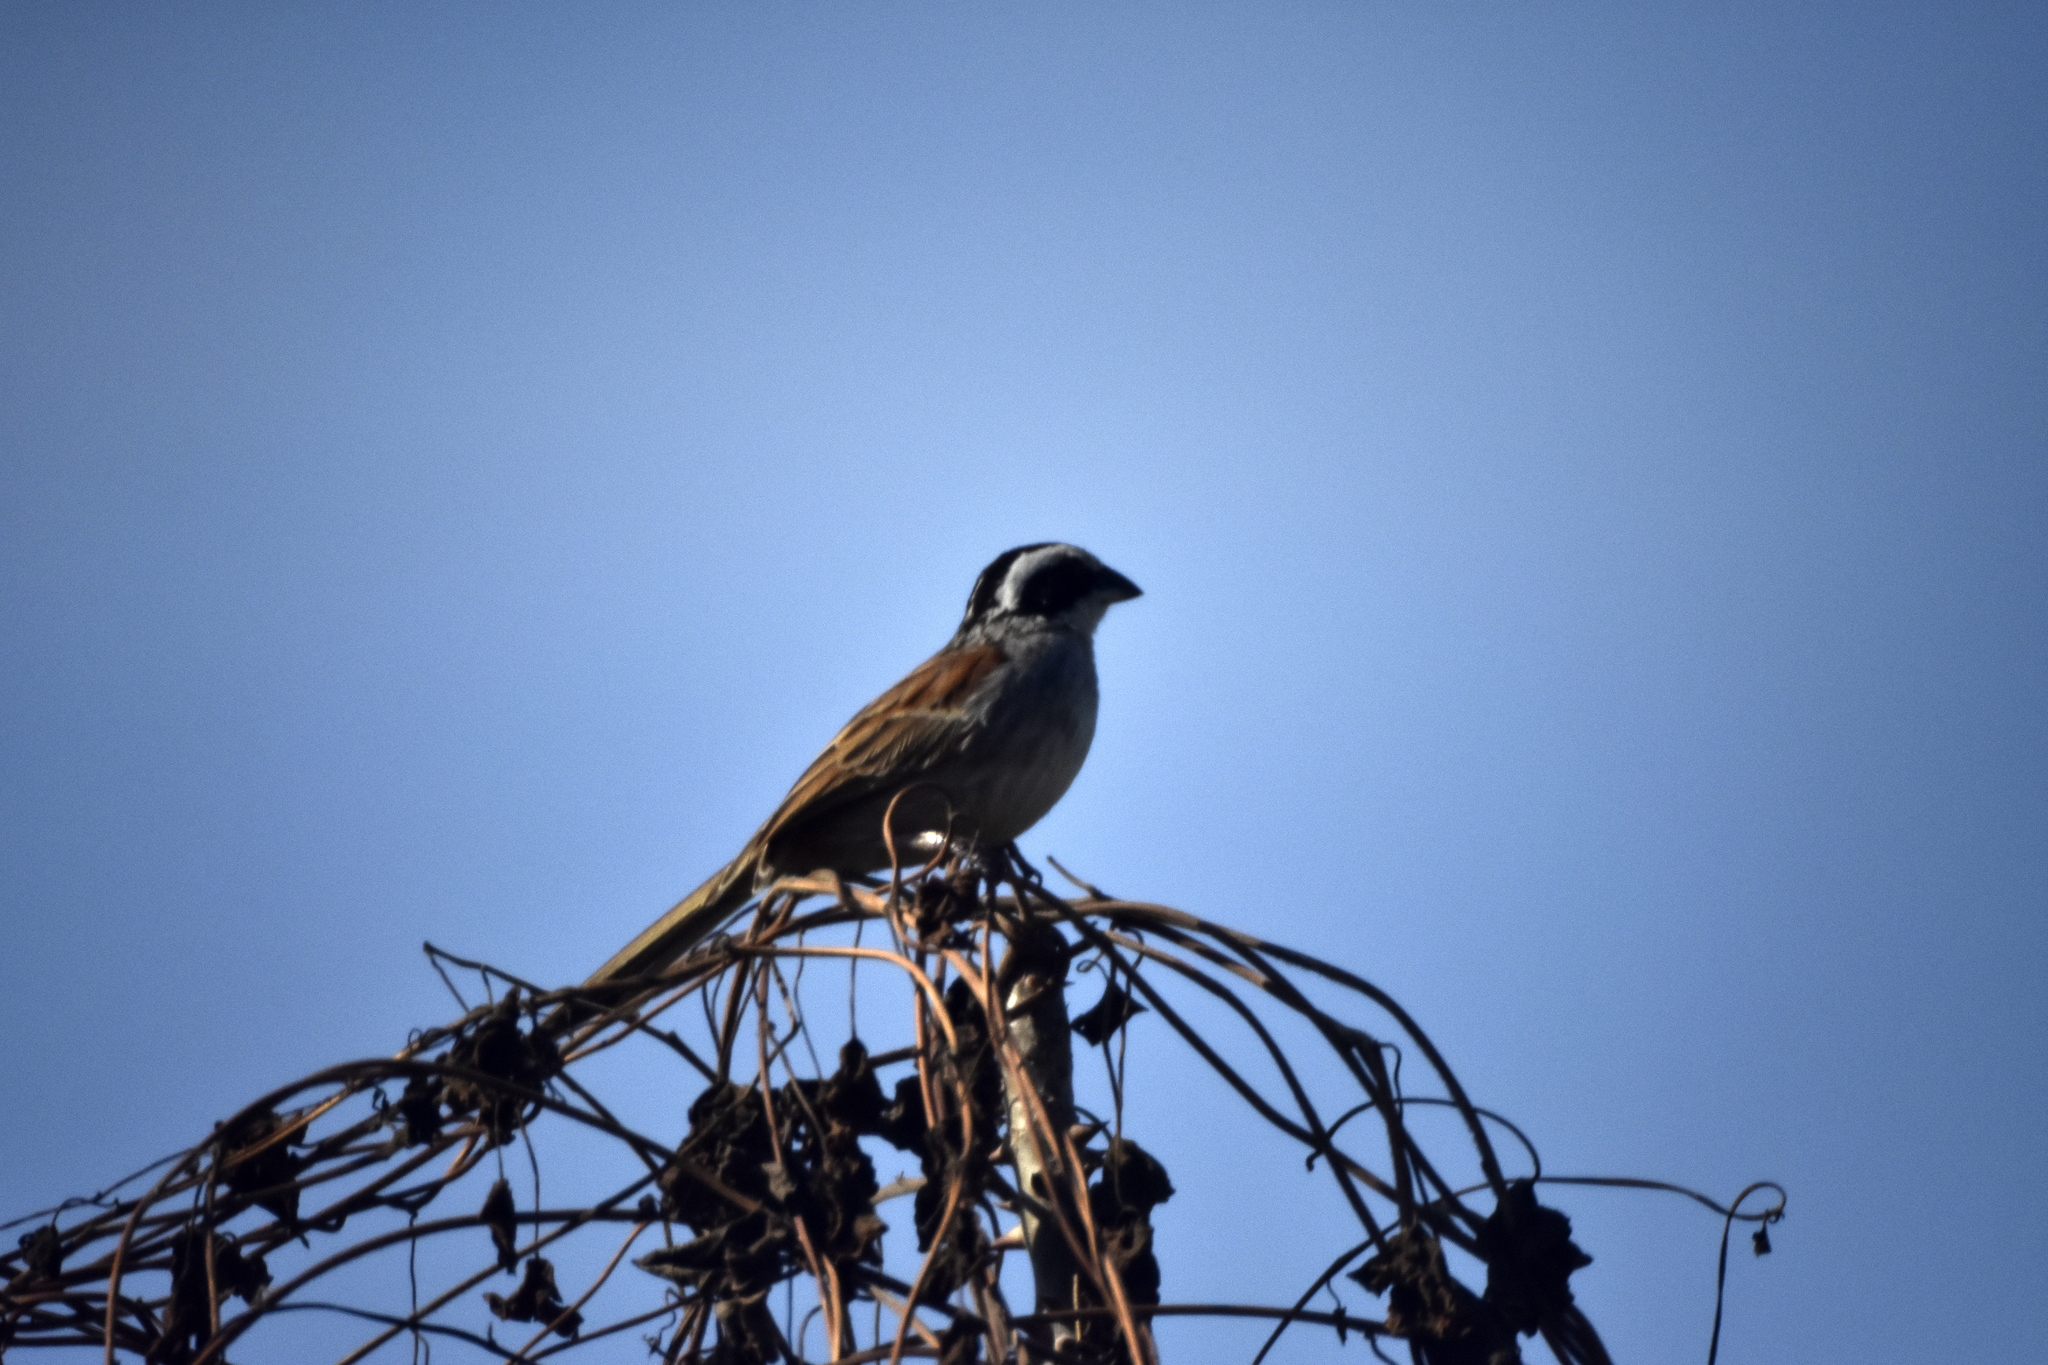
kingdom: Animalia
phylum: Chordata
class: Aves
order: Passeriformes
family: Passerellidae
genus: Peucaea
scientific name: Peucaea ruficauda
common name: Stripe-headed sparrow
